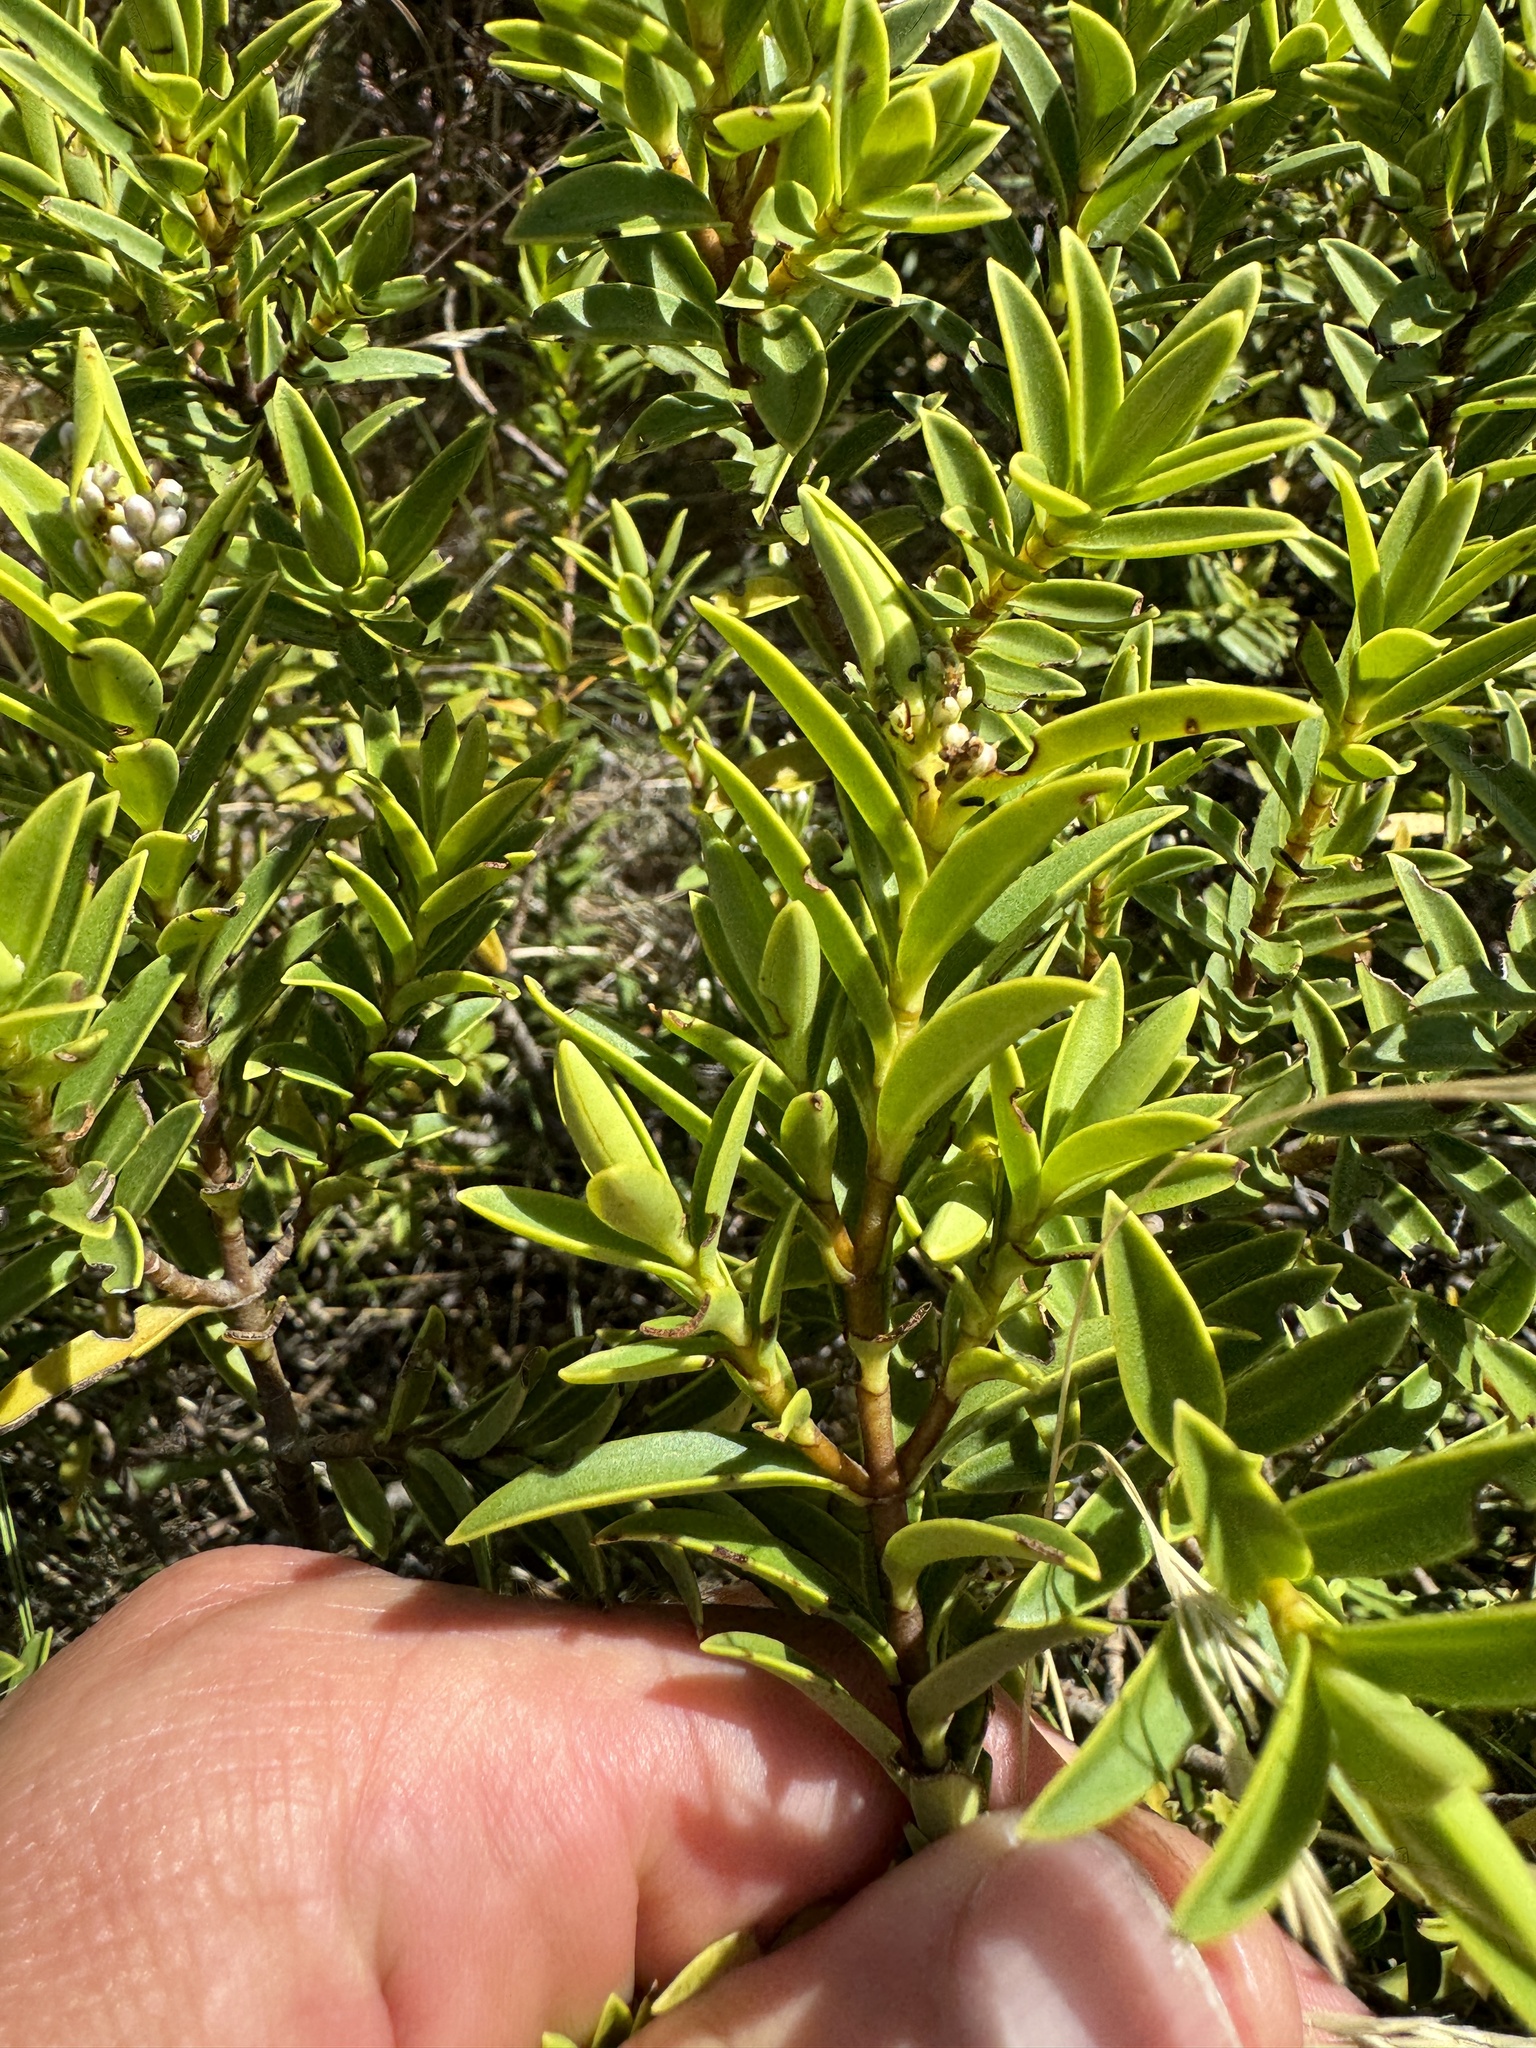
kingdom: Plantae
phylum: Tracheophyta
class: Magnoliopsida
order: Lamiales
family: Plantaginaceae
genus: Veronica
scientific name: Veronica subalpina
